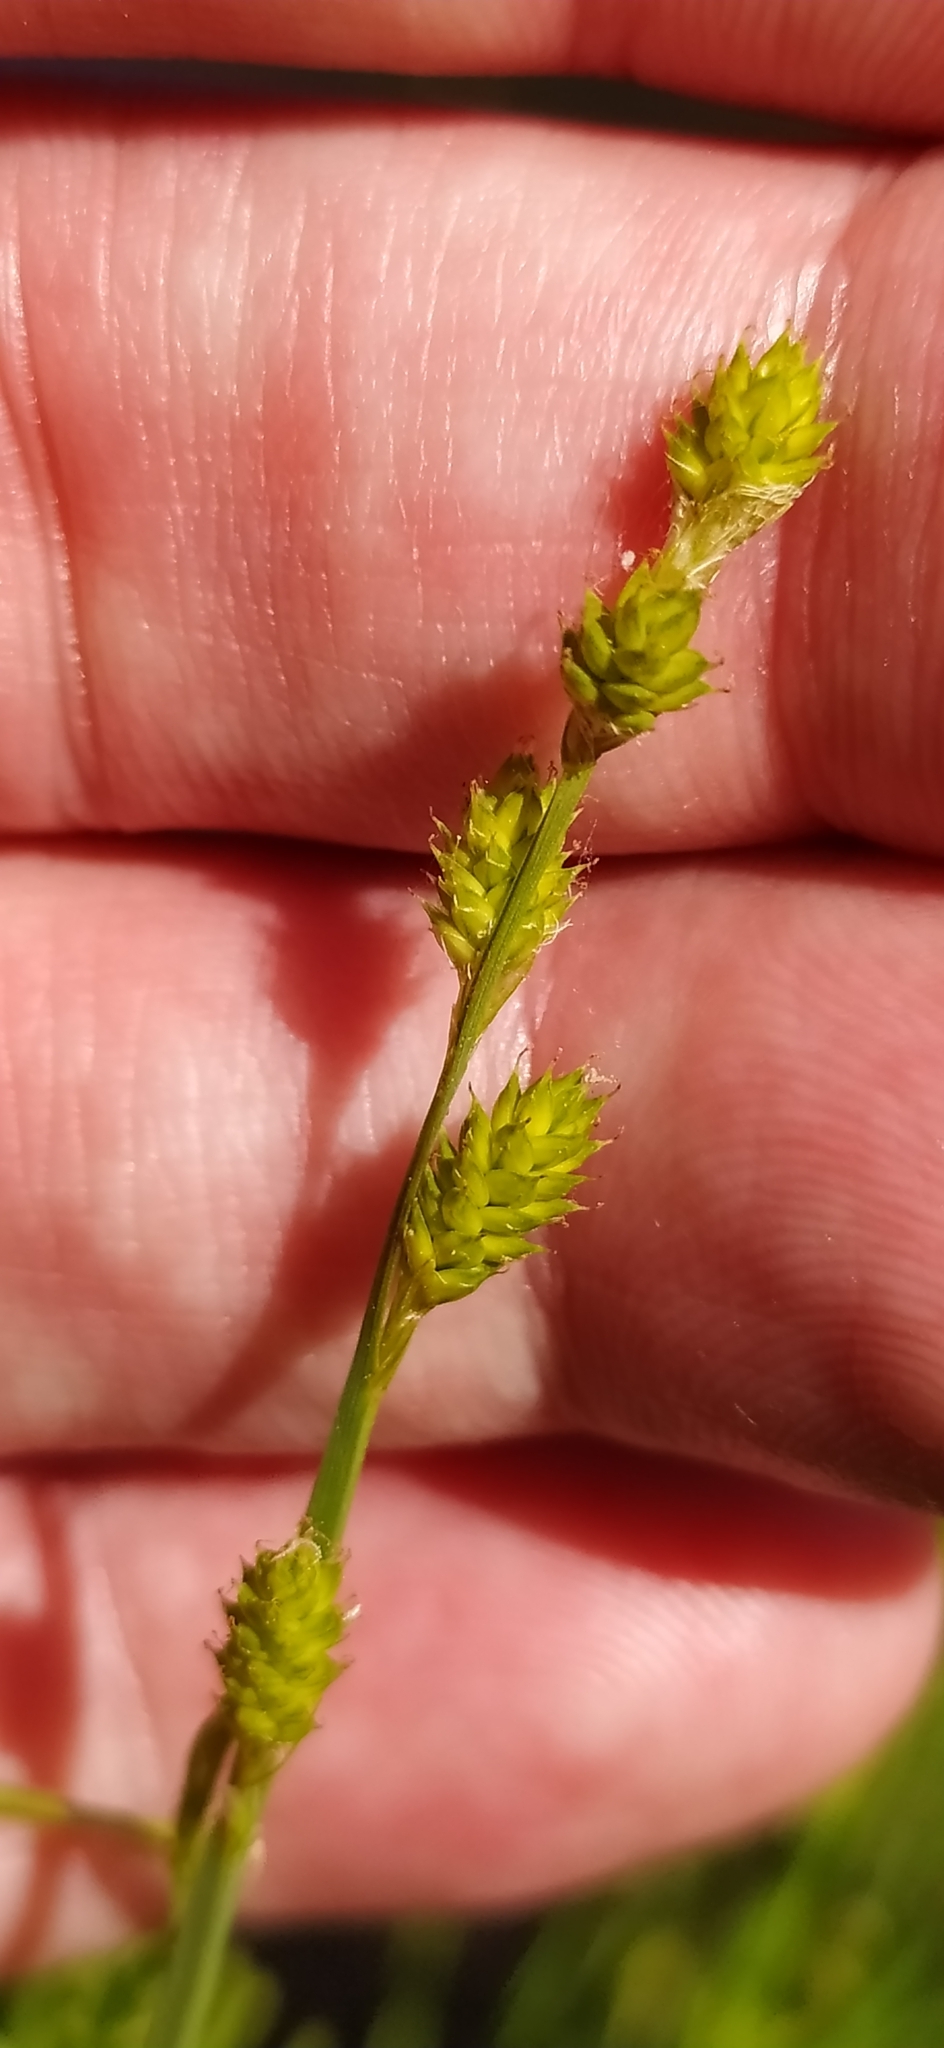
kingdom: Plantae
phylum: Tracheophyta
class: Liliopsida
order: Poales
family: Cyperaceae
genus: Carex
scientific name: Carex canescens
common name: White sedge
